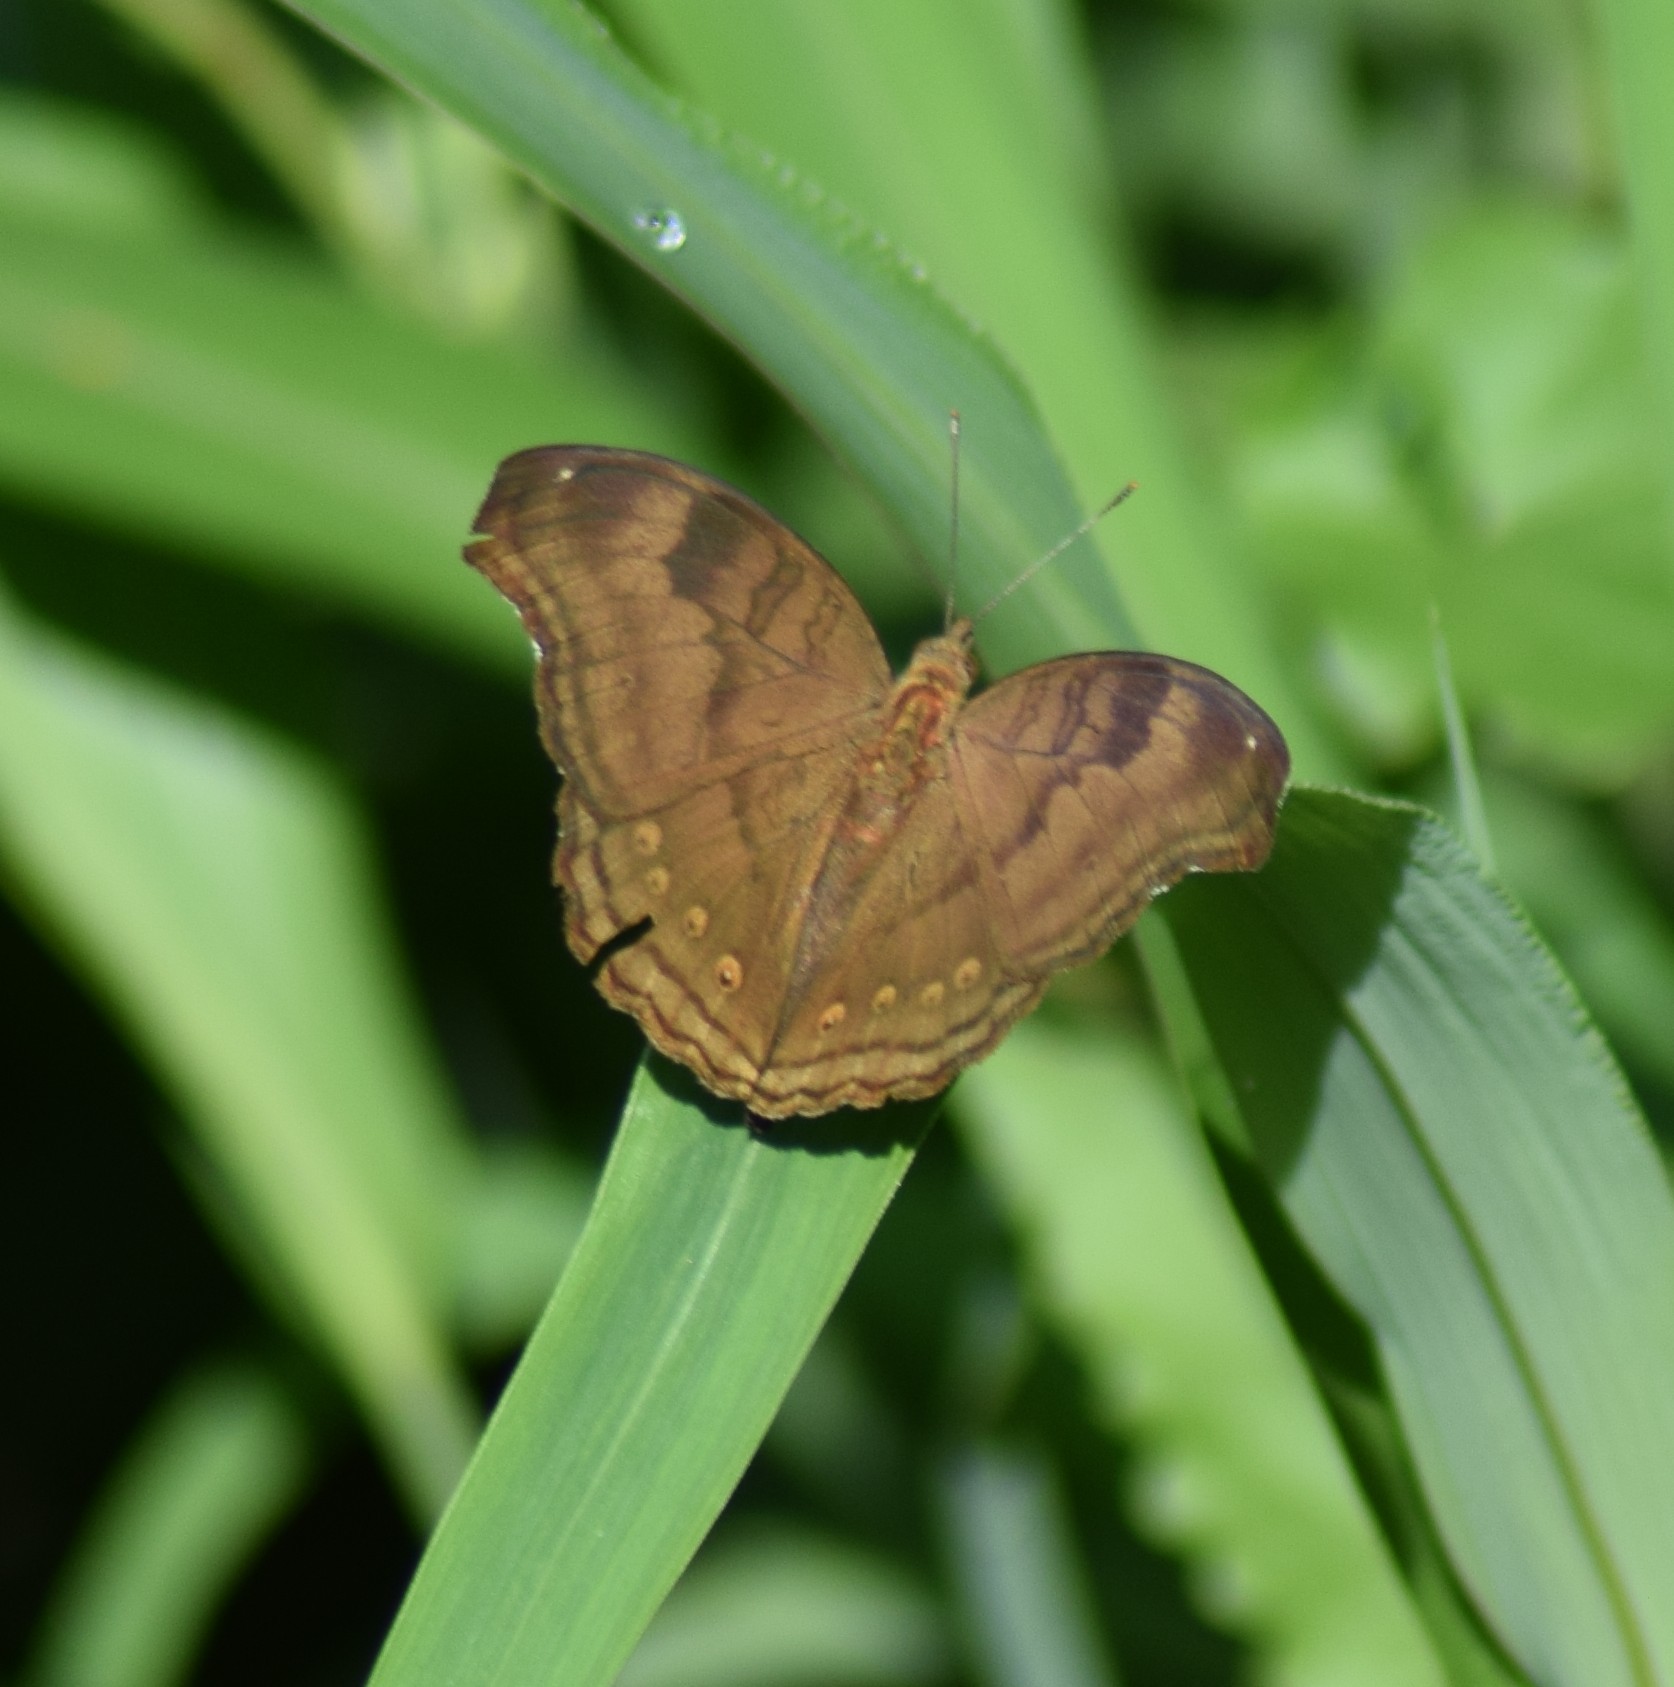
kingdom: Animalia
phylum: Arthropoda
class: Insecta
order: Lepidoptera
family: Nymphalidae
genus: Junonia
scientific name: Junonia iphita
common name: Chocolate pansy
